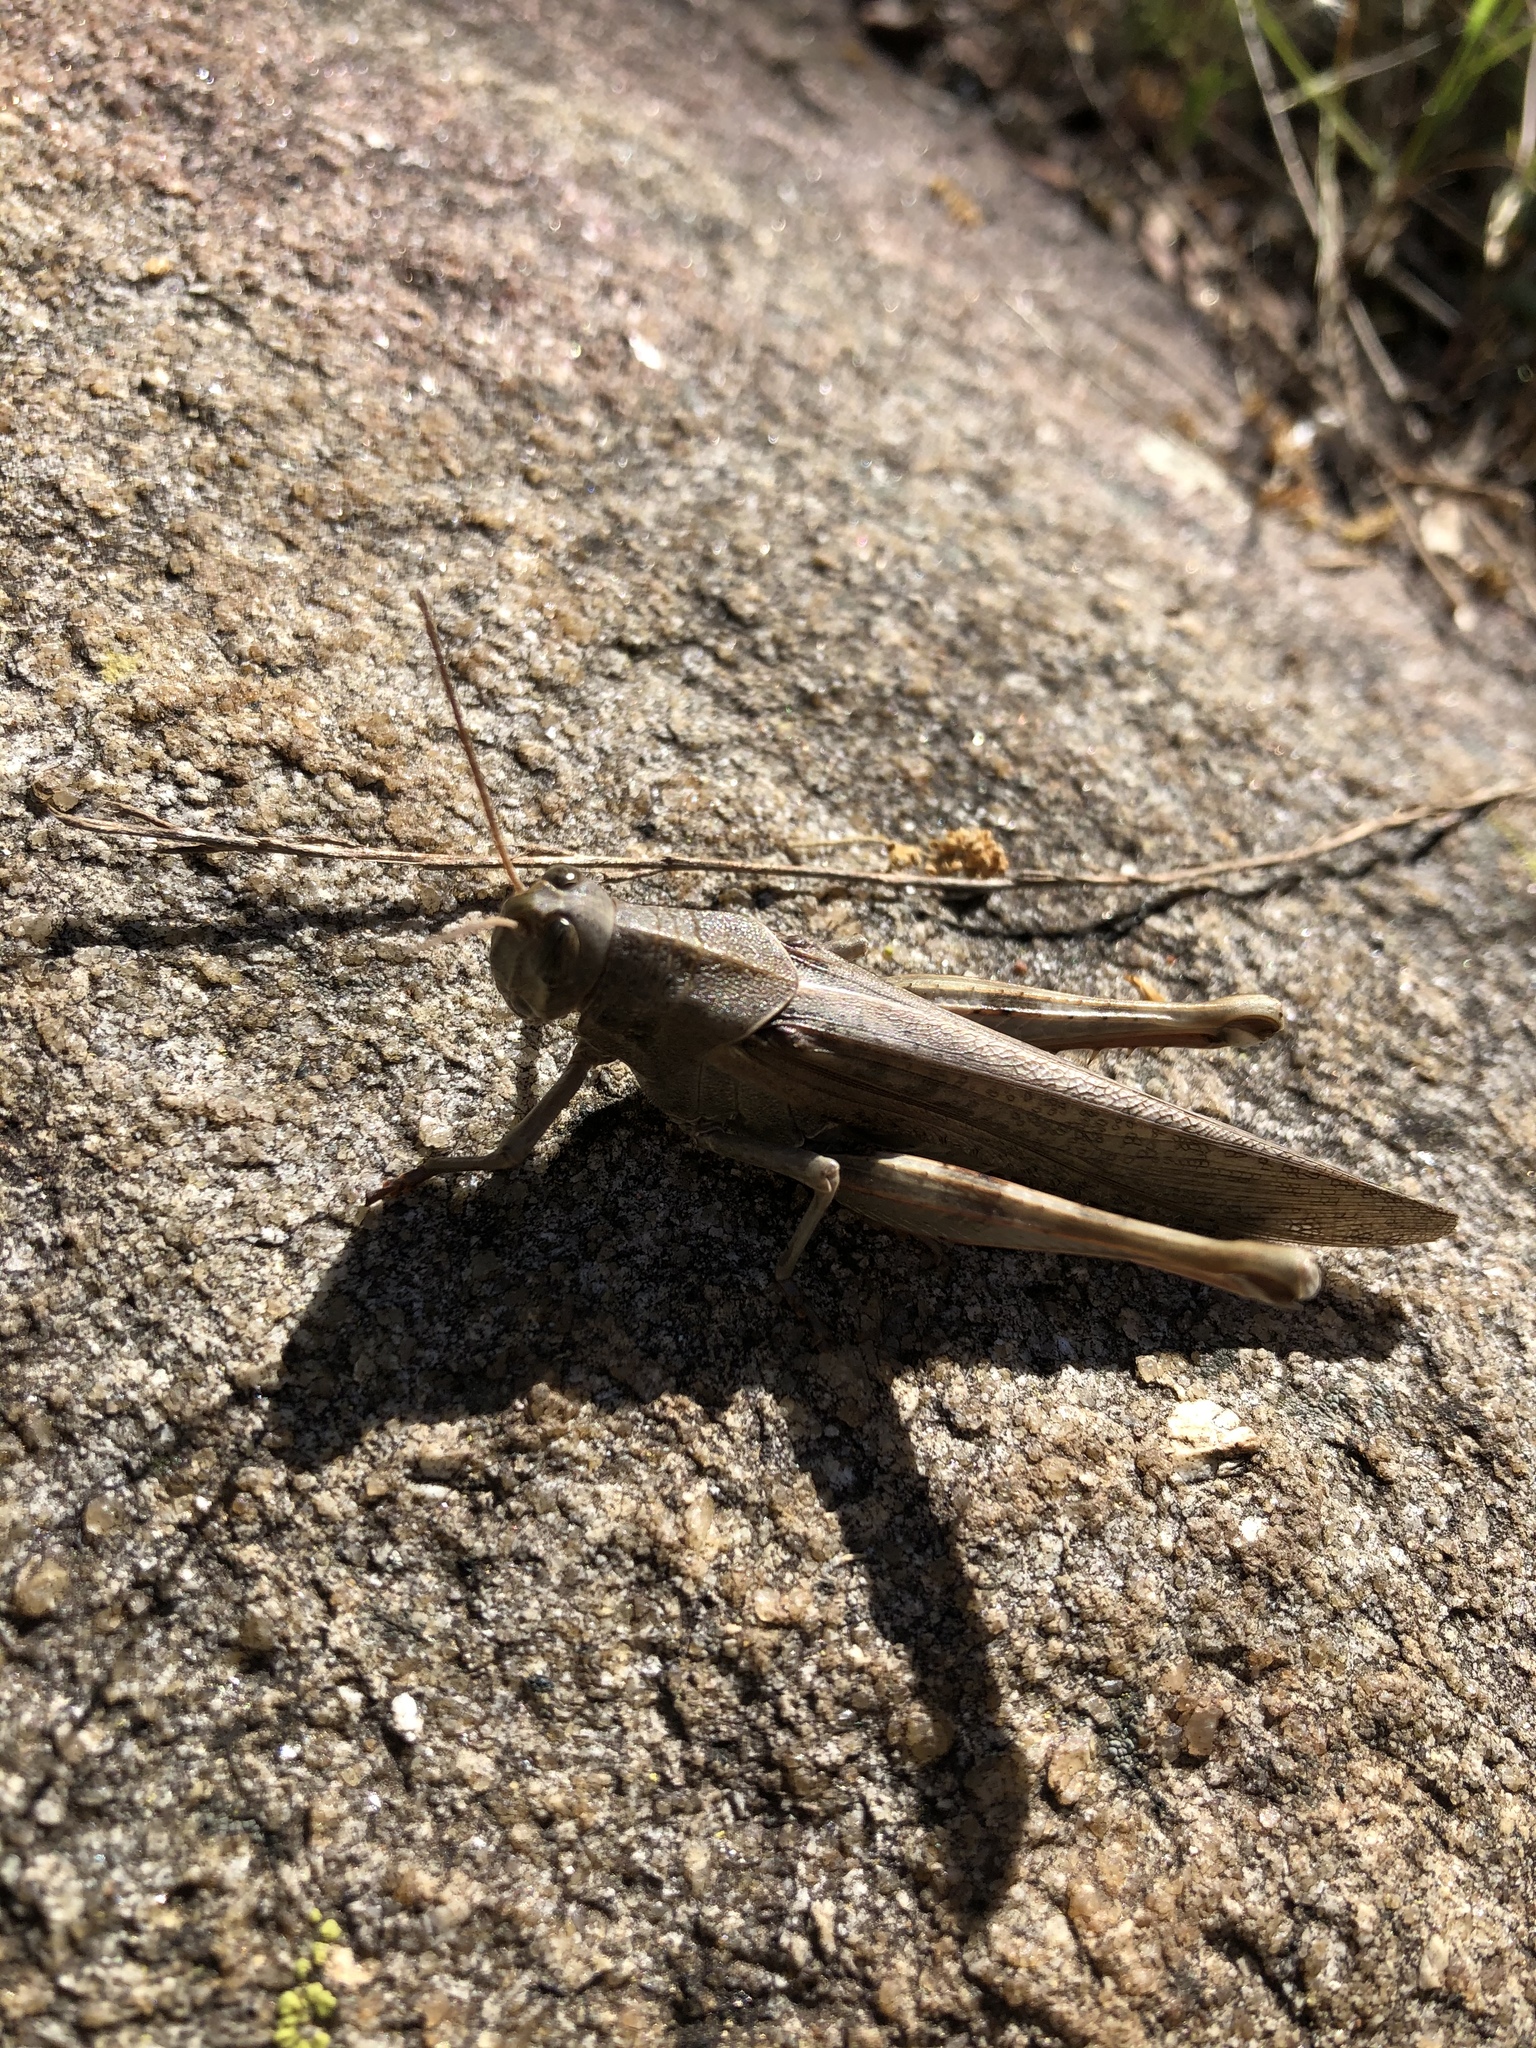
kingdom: Animalia
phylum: Arthropoda
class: Insecta
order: Orthoptera
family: Acrididae
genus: Schistocerca
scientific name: Schistocerca nitens
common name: Vagrant grasshopper
